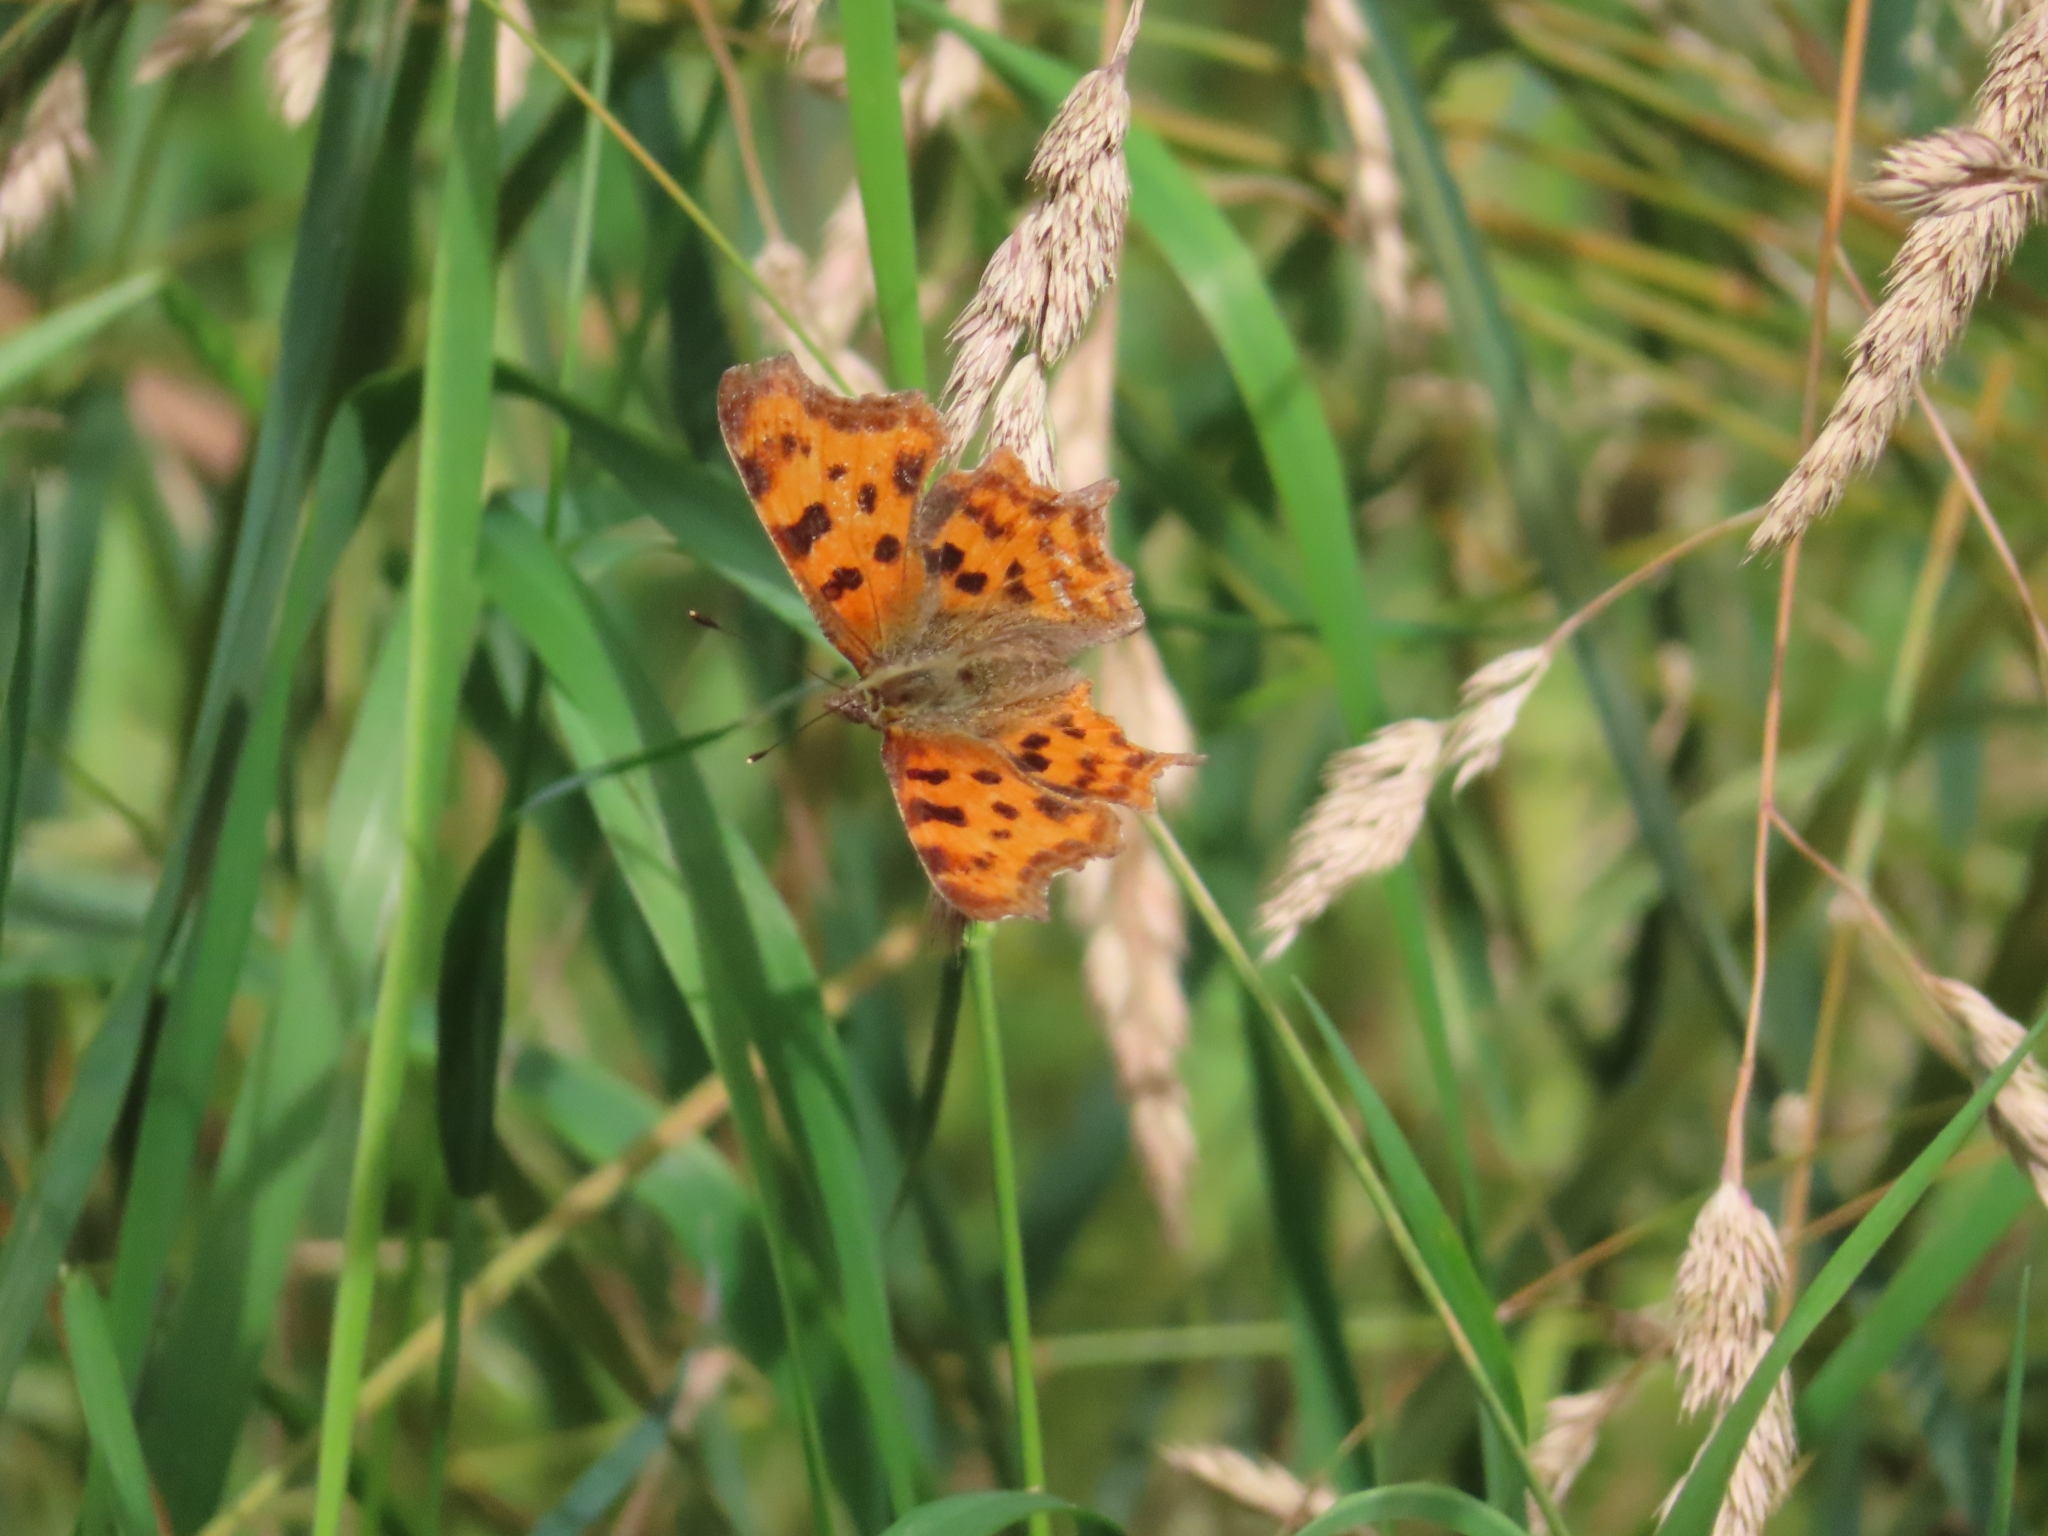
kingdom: Animalia
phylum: Arthropoda
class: Insecta
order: Lepidoptera
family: Nymphalidae
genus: Polygonia
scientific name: Polygonia c-album
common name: Comma
